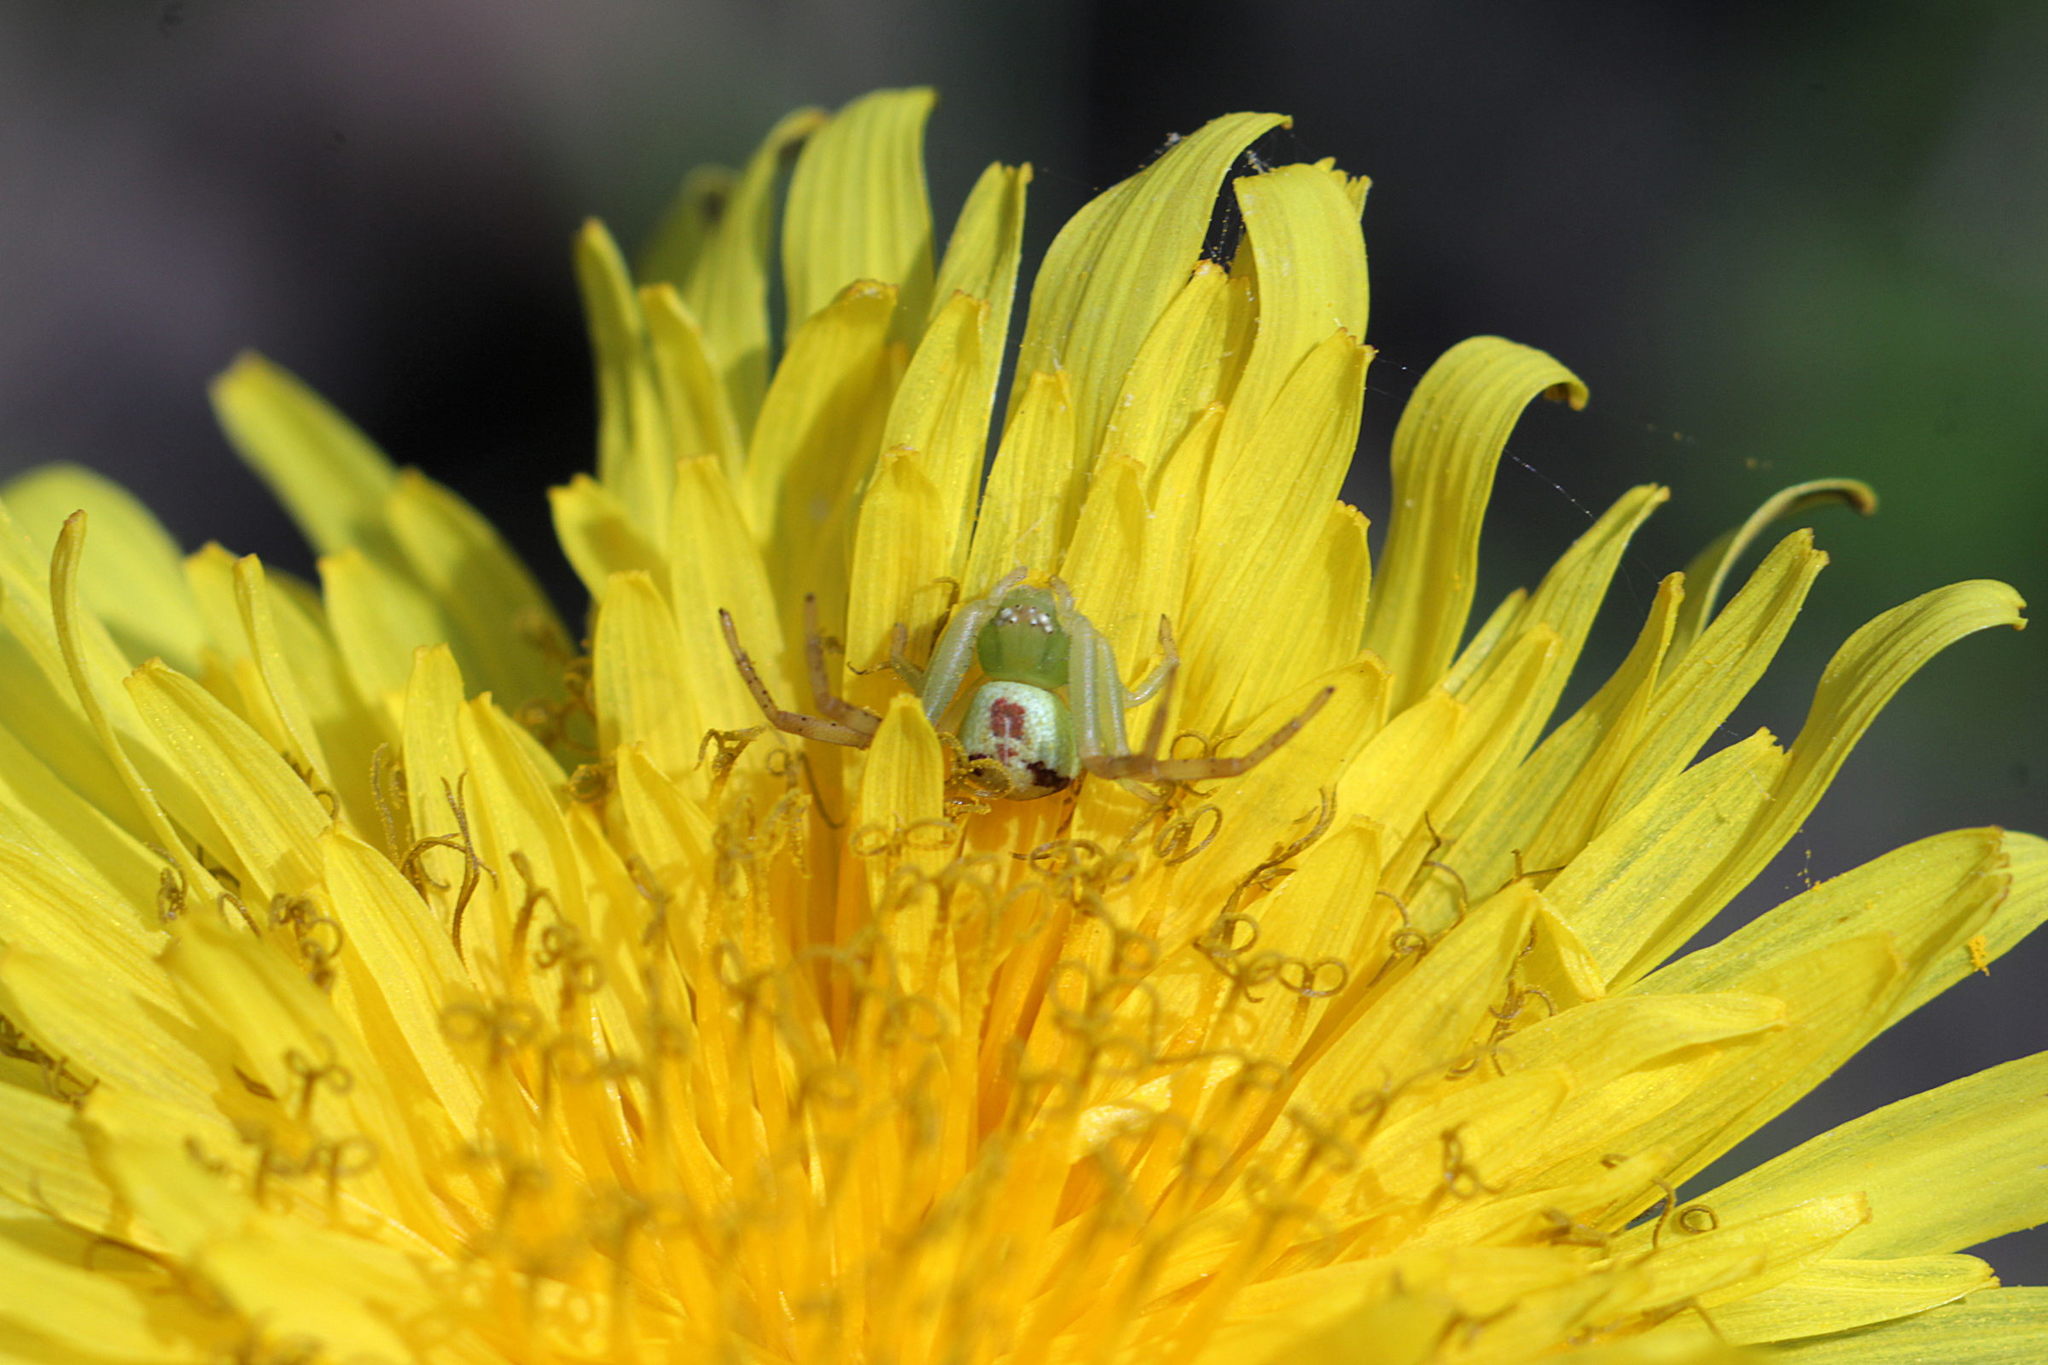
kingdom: Animalia
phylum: Arthropoda
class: Arachnida
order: Araneae
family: Thomisidae
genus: Ebrechtella
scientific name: Ebrechtella tricuspidata
